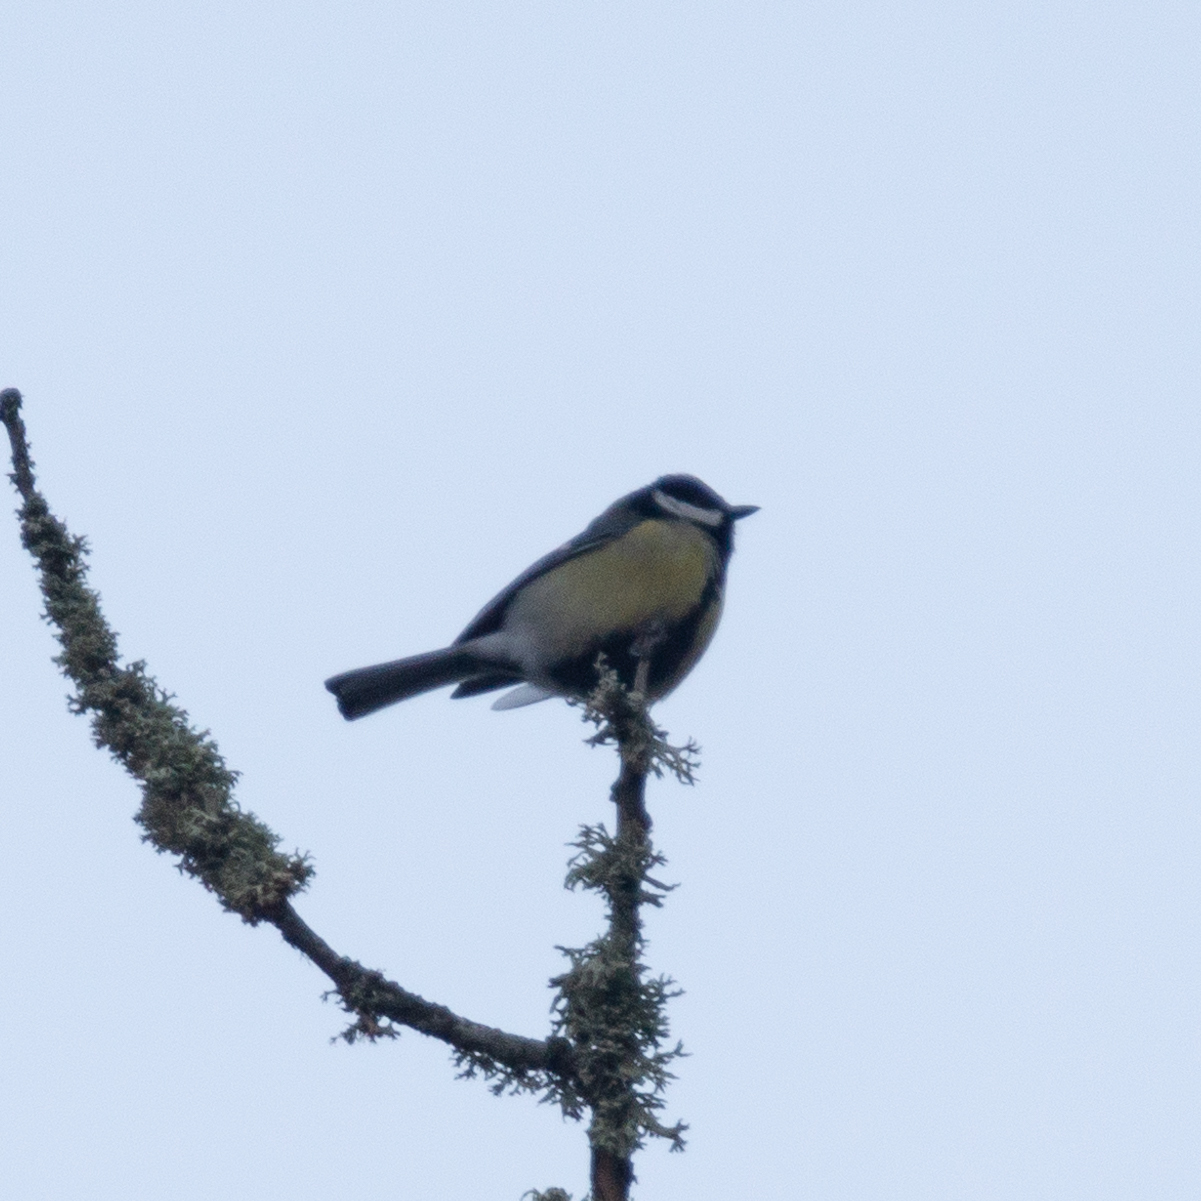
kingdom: Animalia
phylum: Chordata
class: Aves
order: Passeriformes
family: Paridae
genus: Parus
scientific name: Parus major
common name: Great tit
